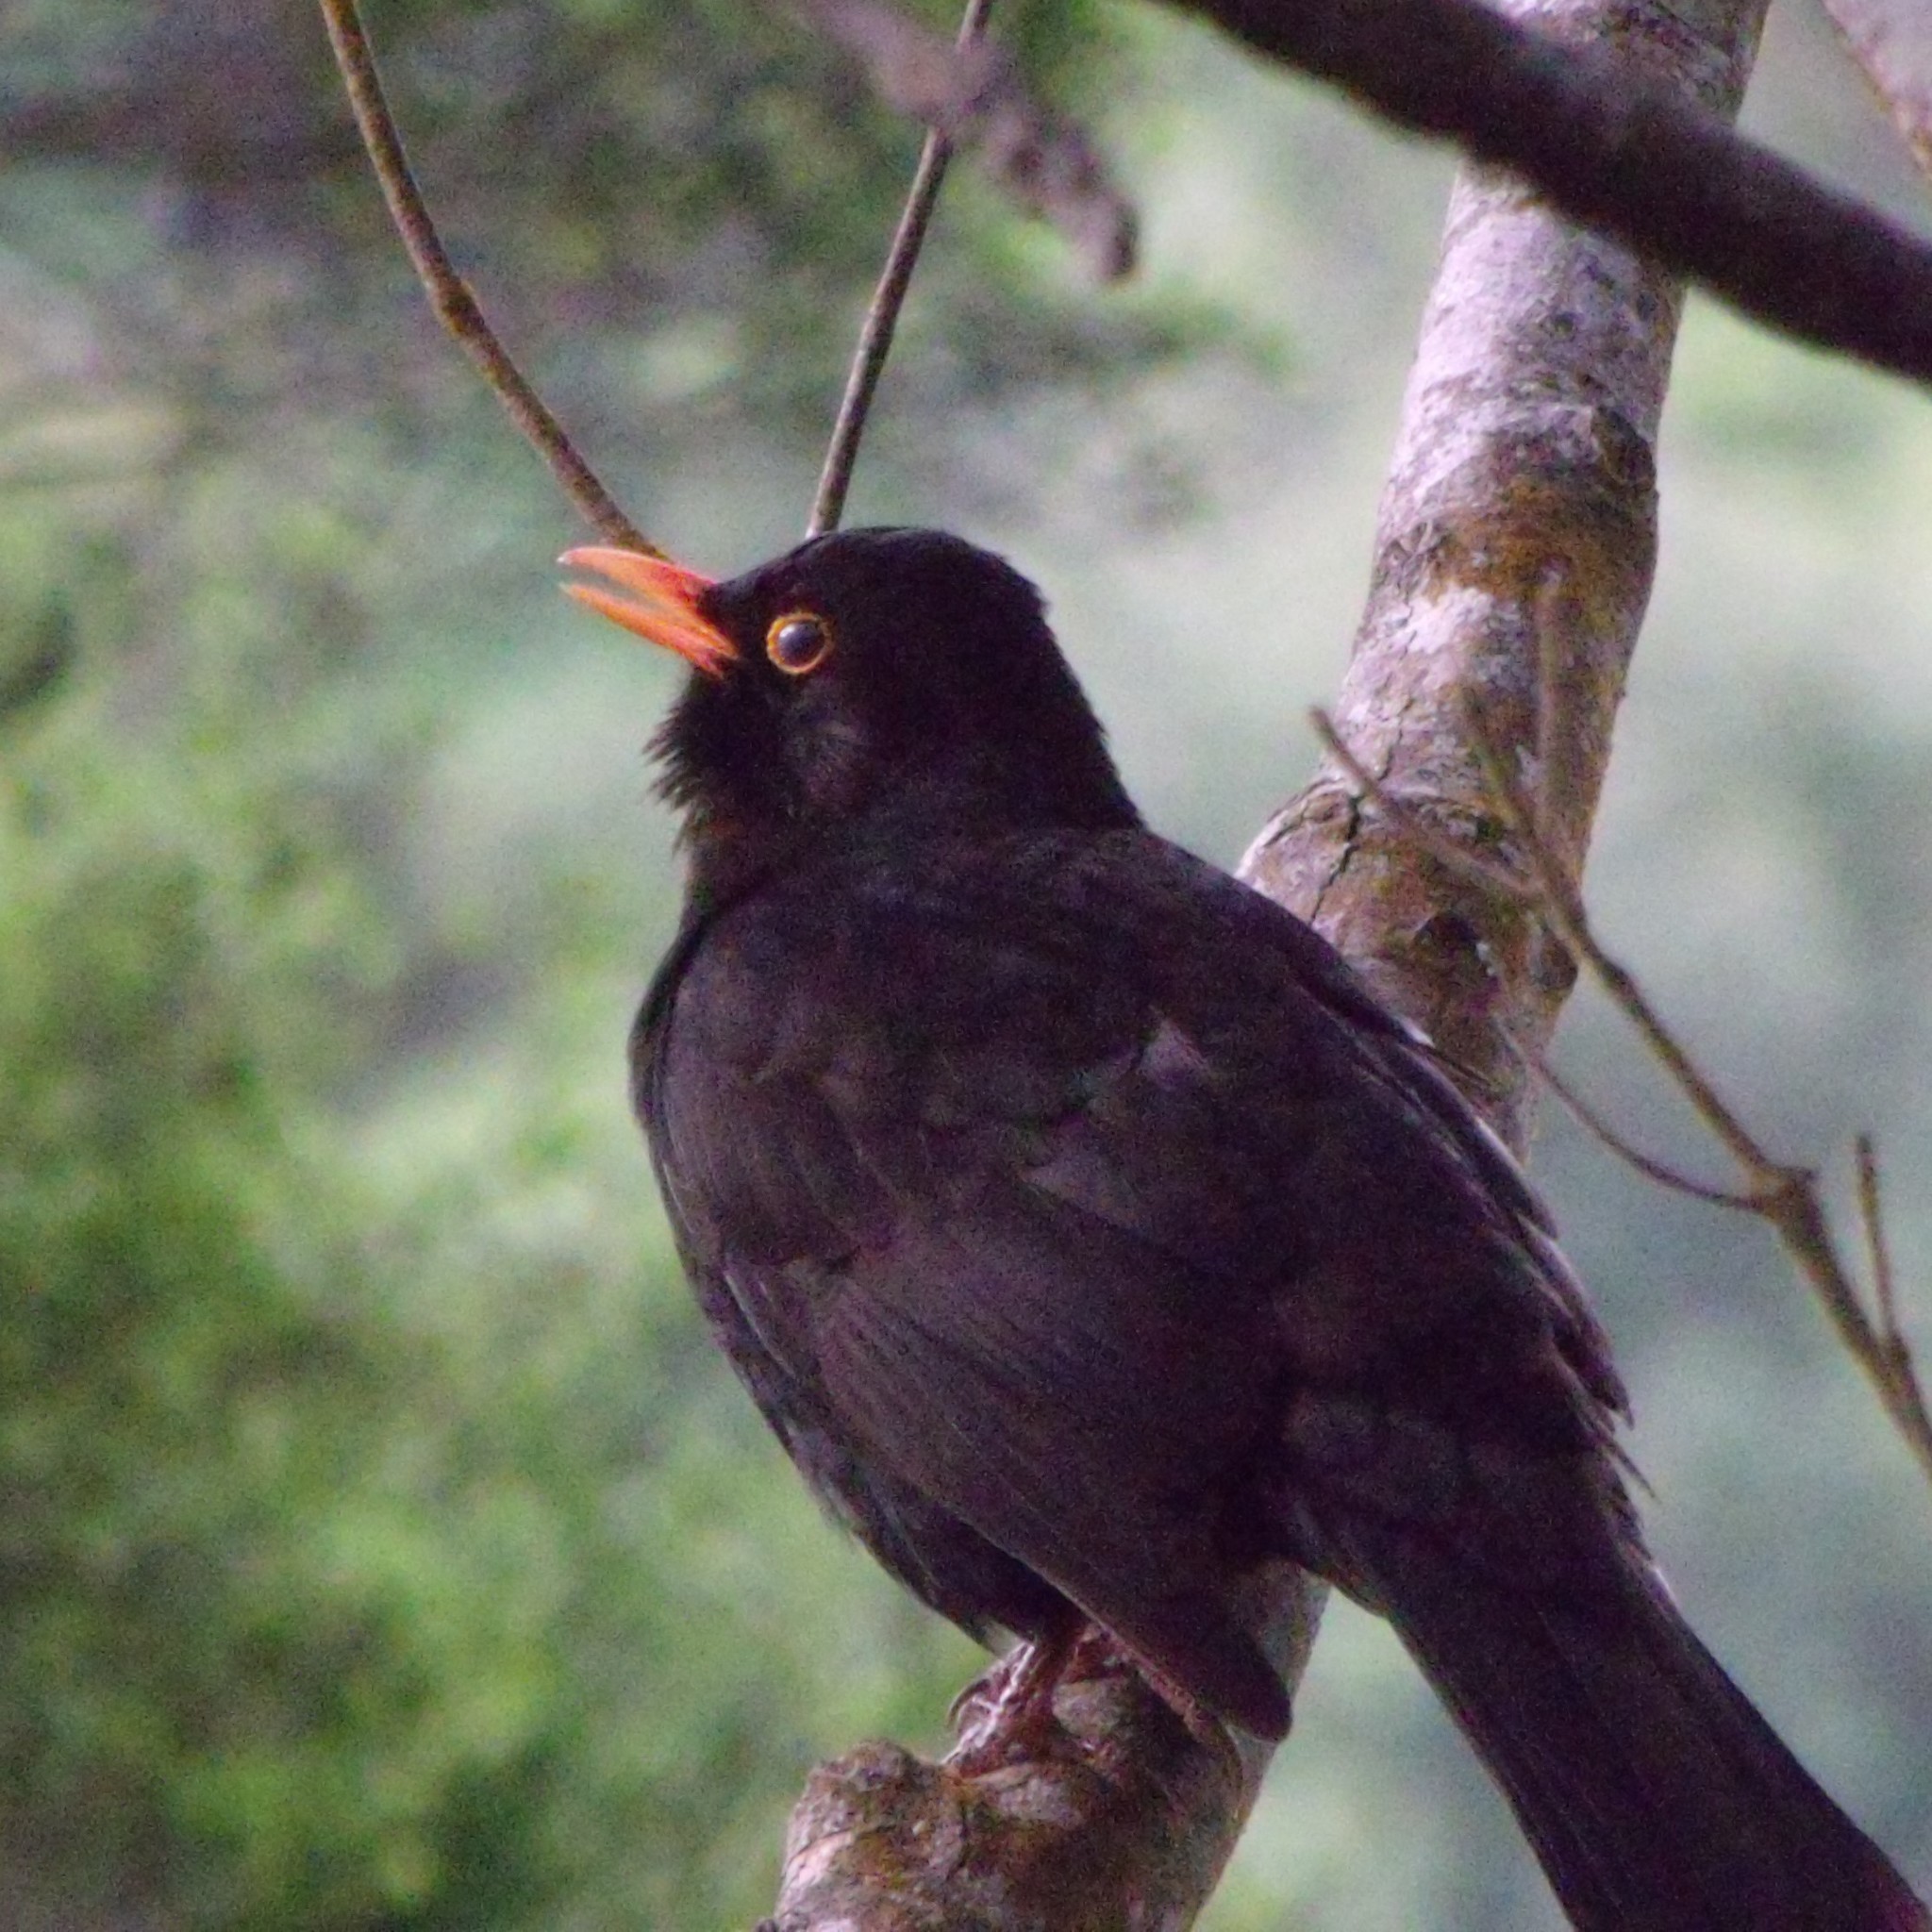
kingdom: Animalia
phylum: Chordata
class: Aves
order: Passeriformes
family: Turdidae
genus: Turdus
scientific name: Turdus merula
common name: Common blackbird
